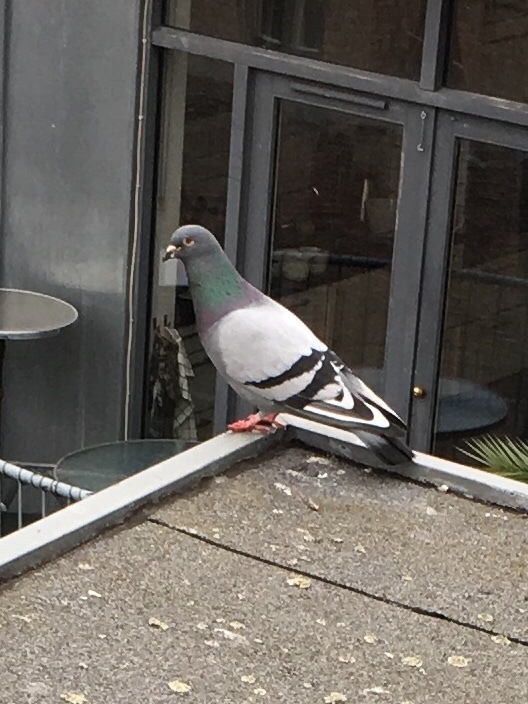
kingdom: Animalia
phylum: Chordata
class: Aves
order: Columbiformes
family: Columbidae
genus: Columba
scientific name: Columba livia
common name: Rock pigeon
